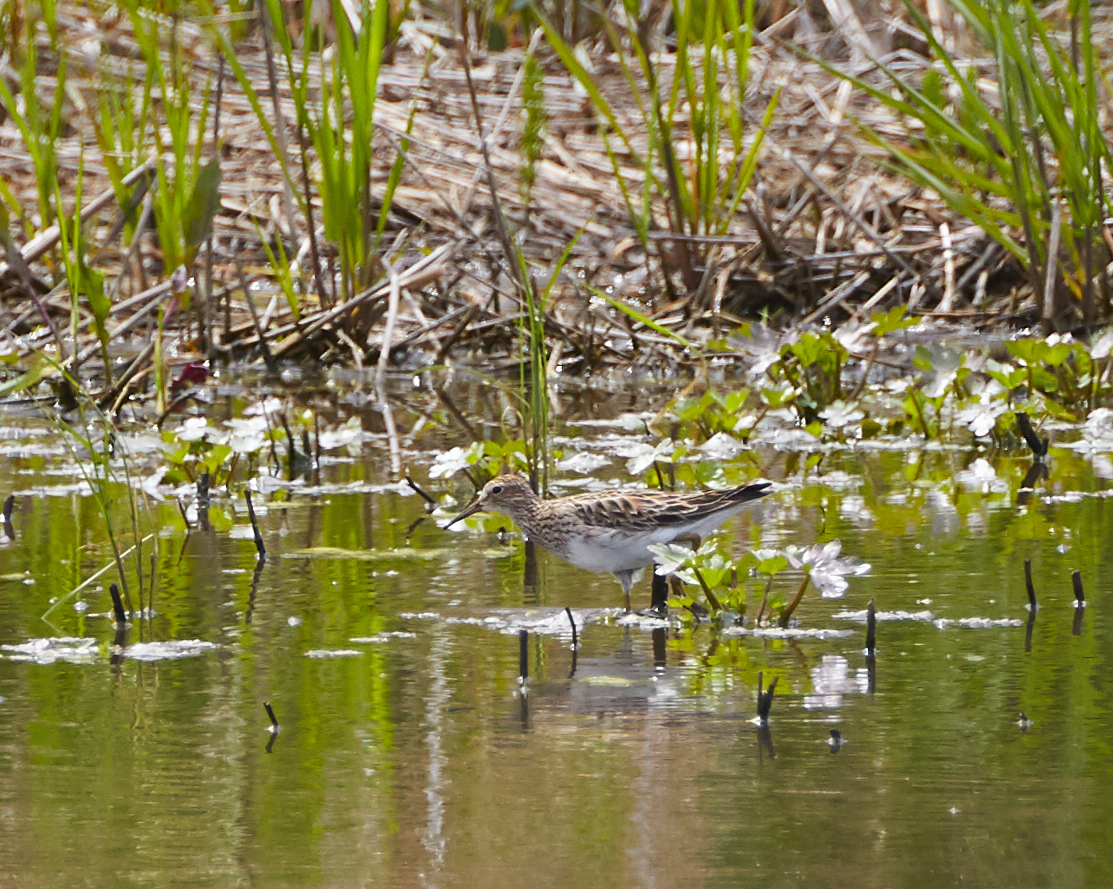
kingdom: Animalia
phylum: Chordata
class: Aves
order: Charadriiformes
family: Scolopacidae
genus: Calidris
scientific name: Calidris melanotos
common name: Pectoral sandpiper
